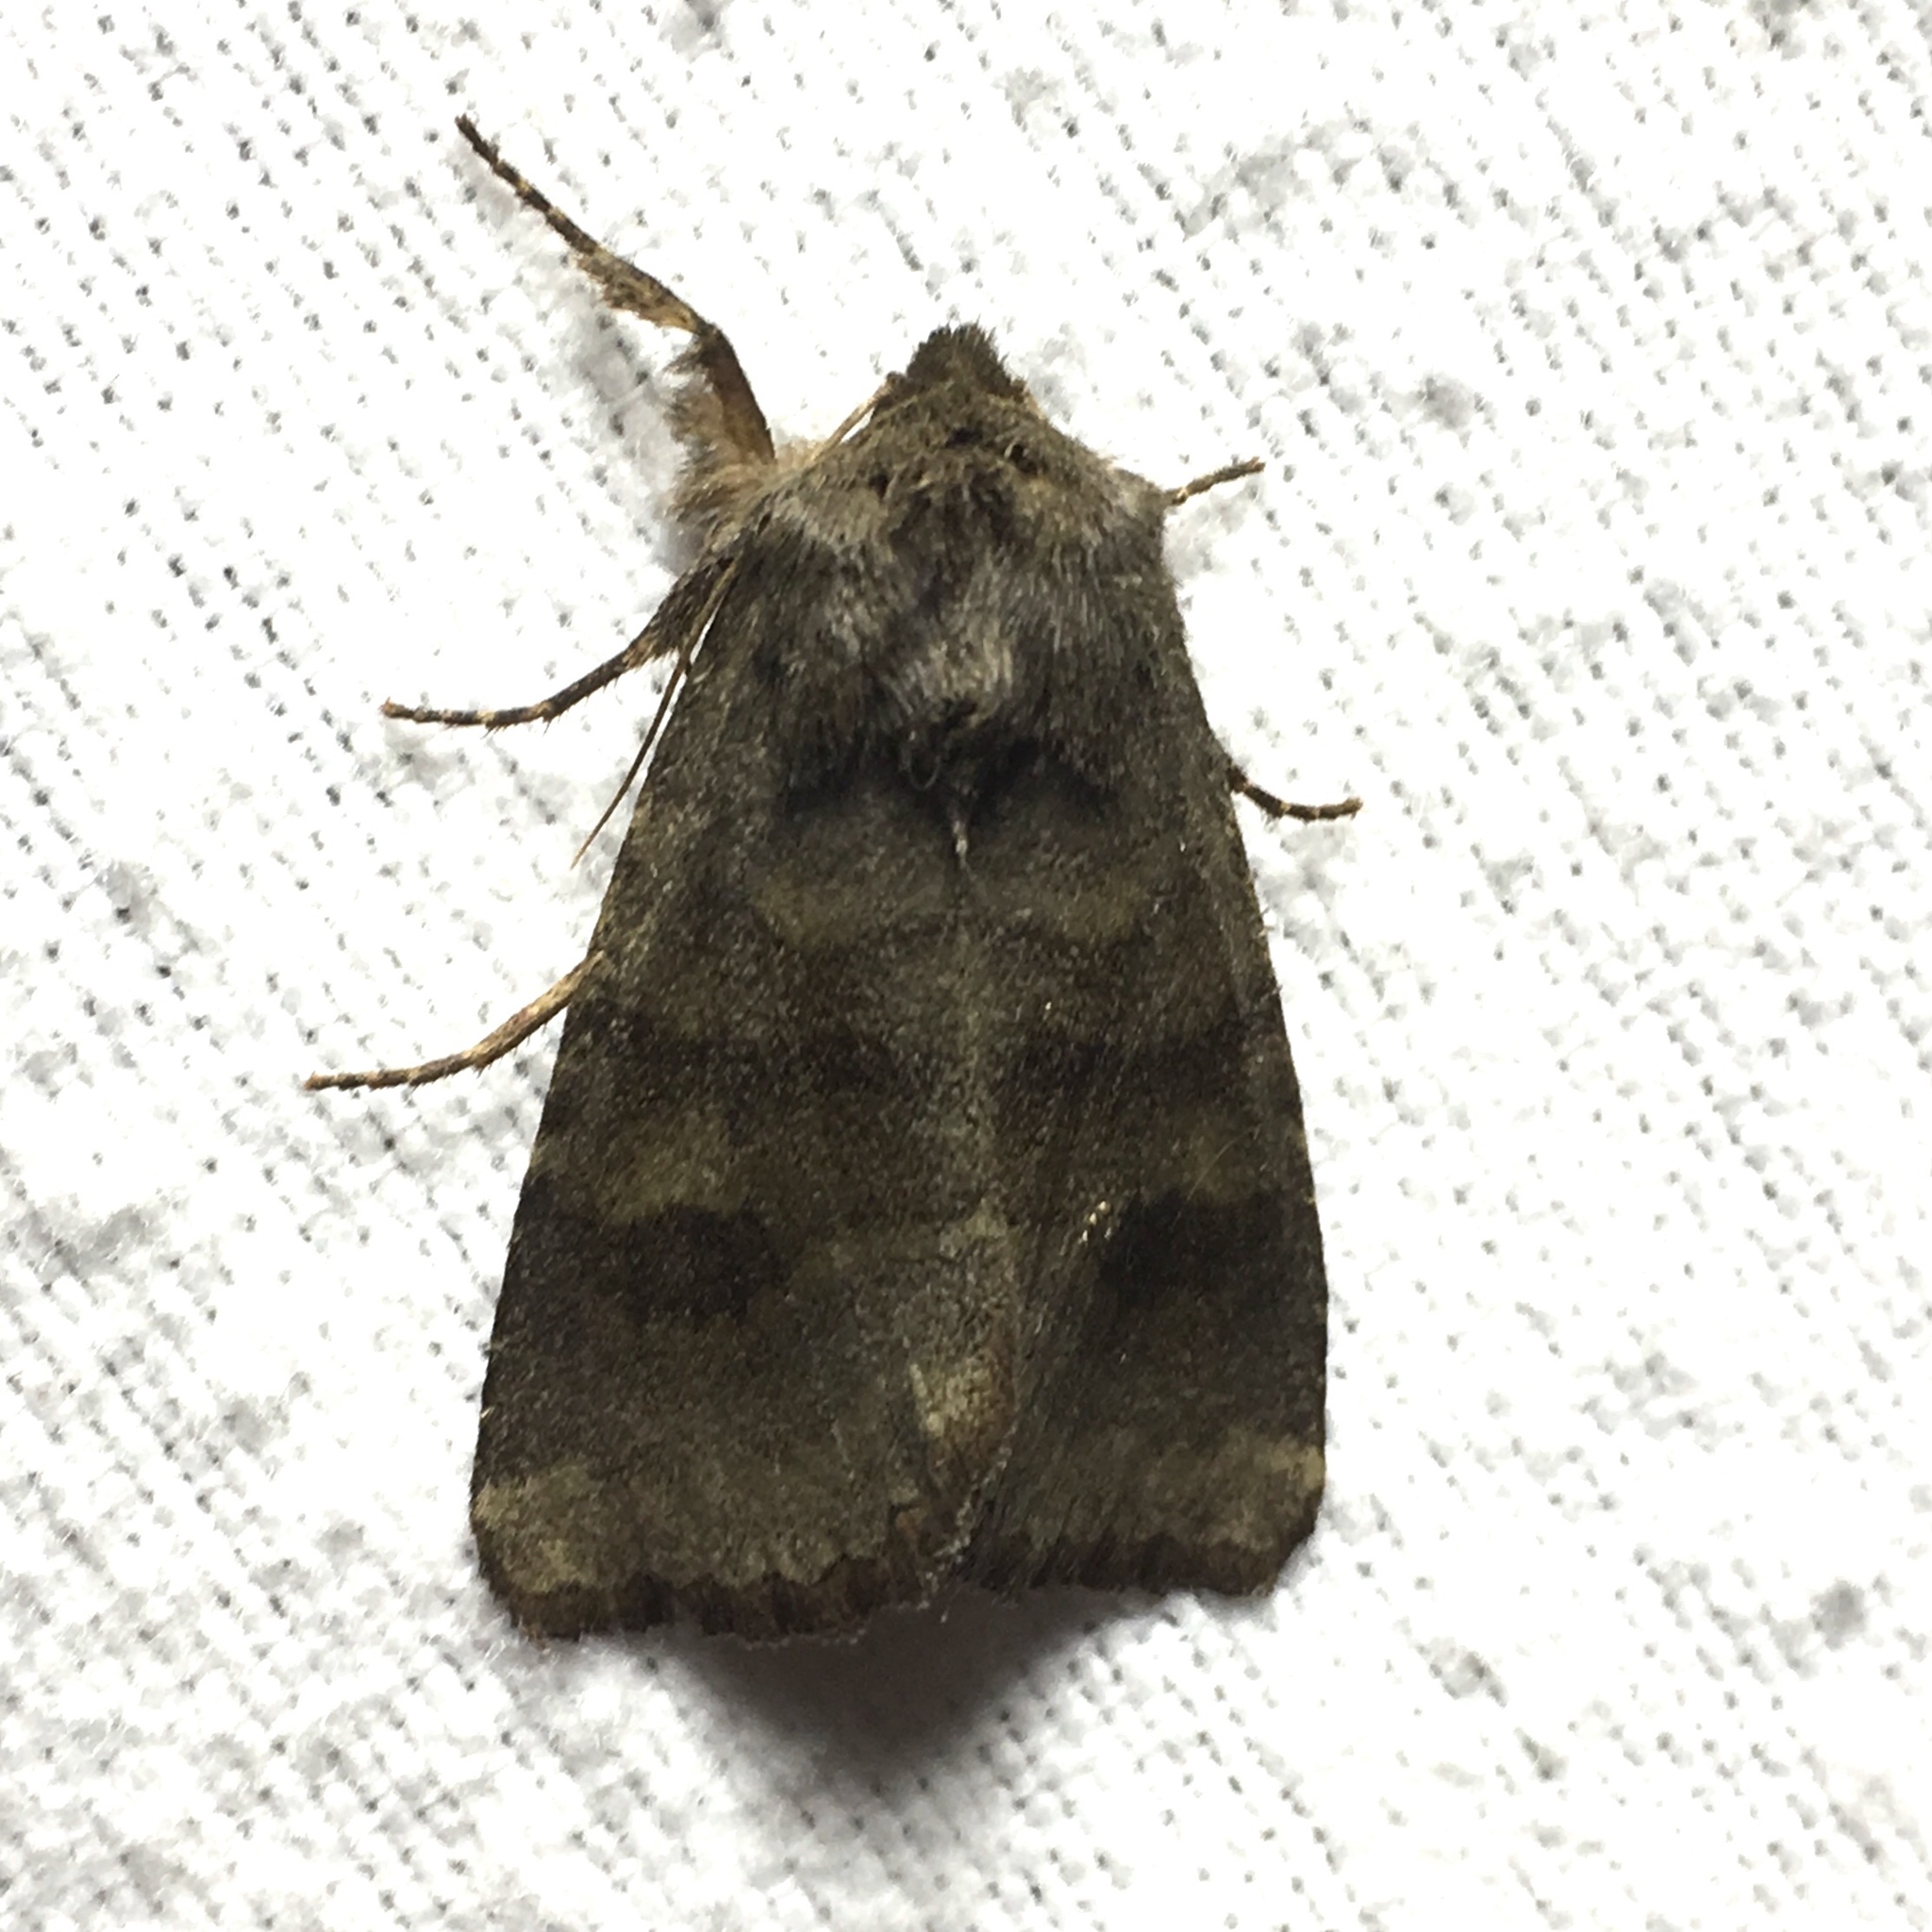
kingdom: Animalia
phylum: Arthropoda
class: Insecta
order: Lepidoptera
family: Noctuidae
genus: Nephelodes
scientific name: Nephelodes minians
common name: Bronzed cutworm
